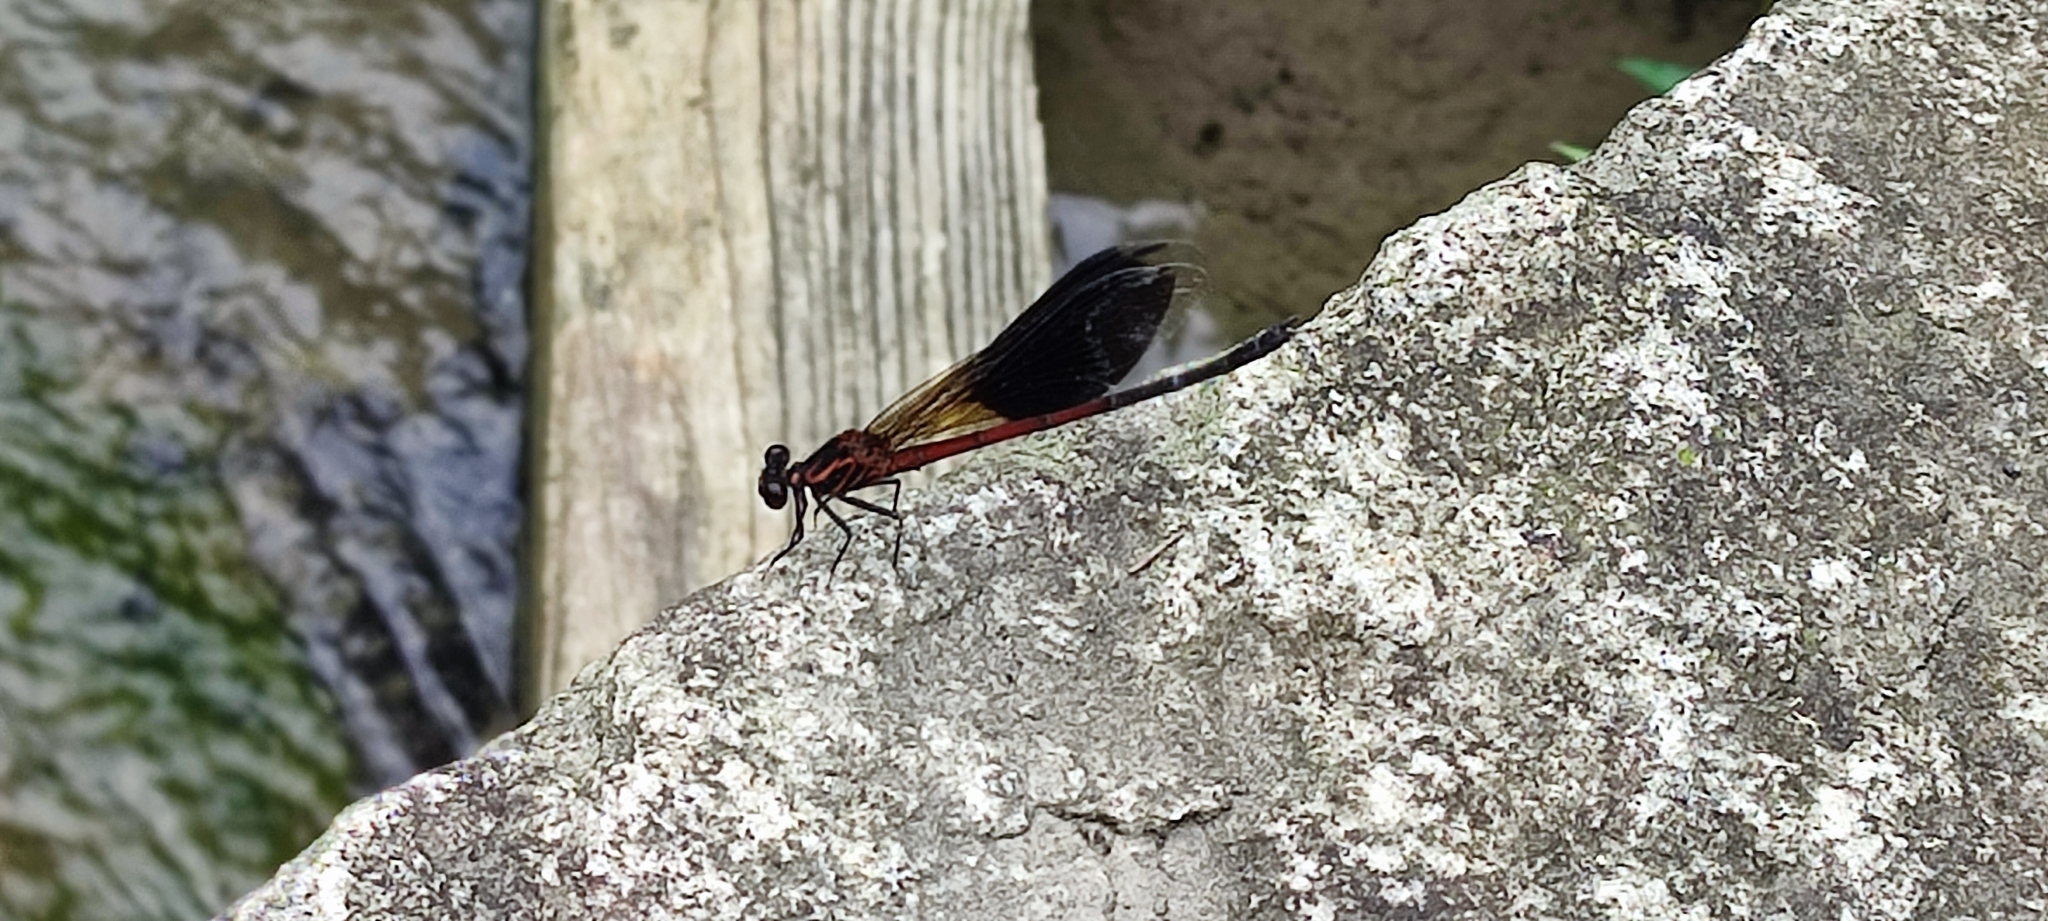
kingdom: Animalia
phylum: Arthropoda
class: Insecta
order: Odonata
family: Euphaeidae
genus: Euphaea
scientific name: Euphaea formosa
